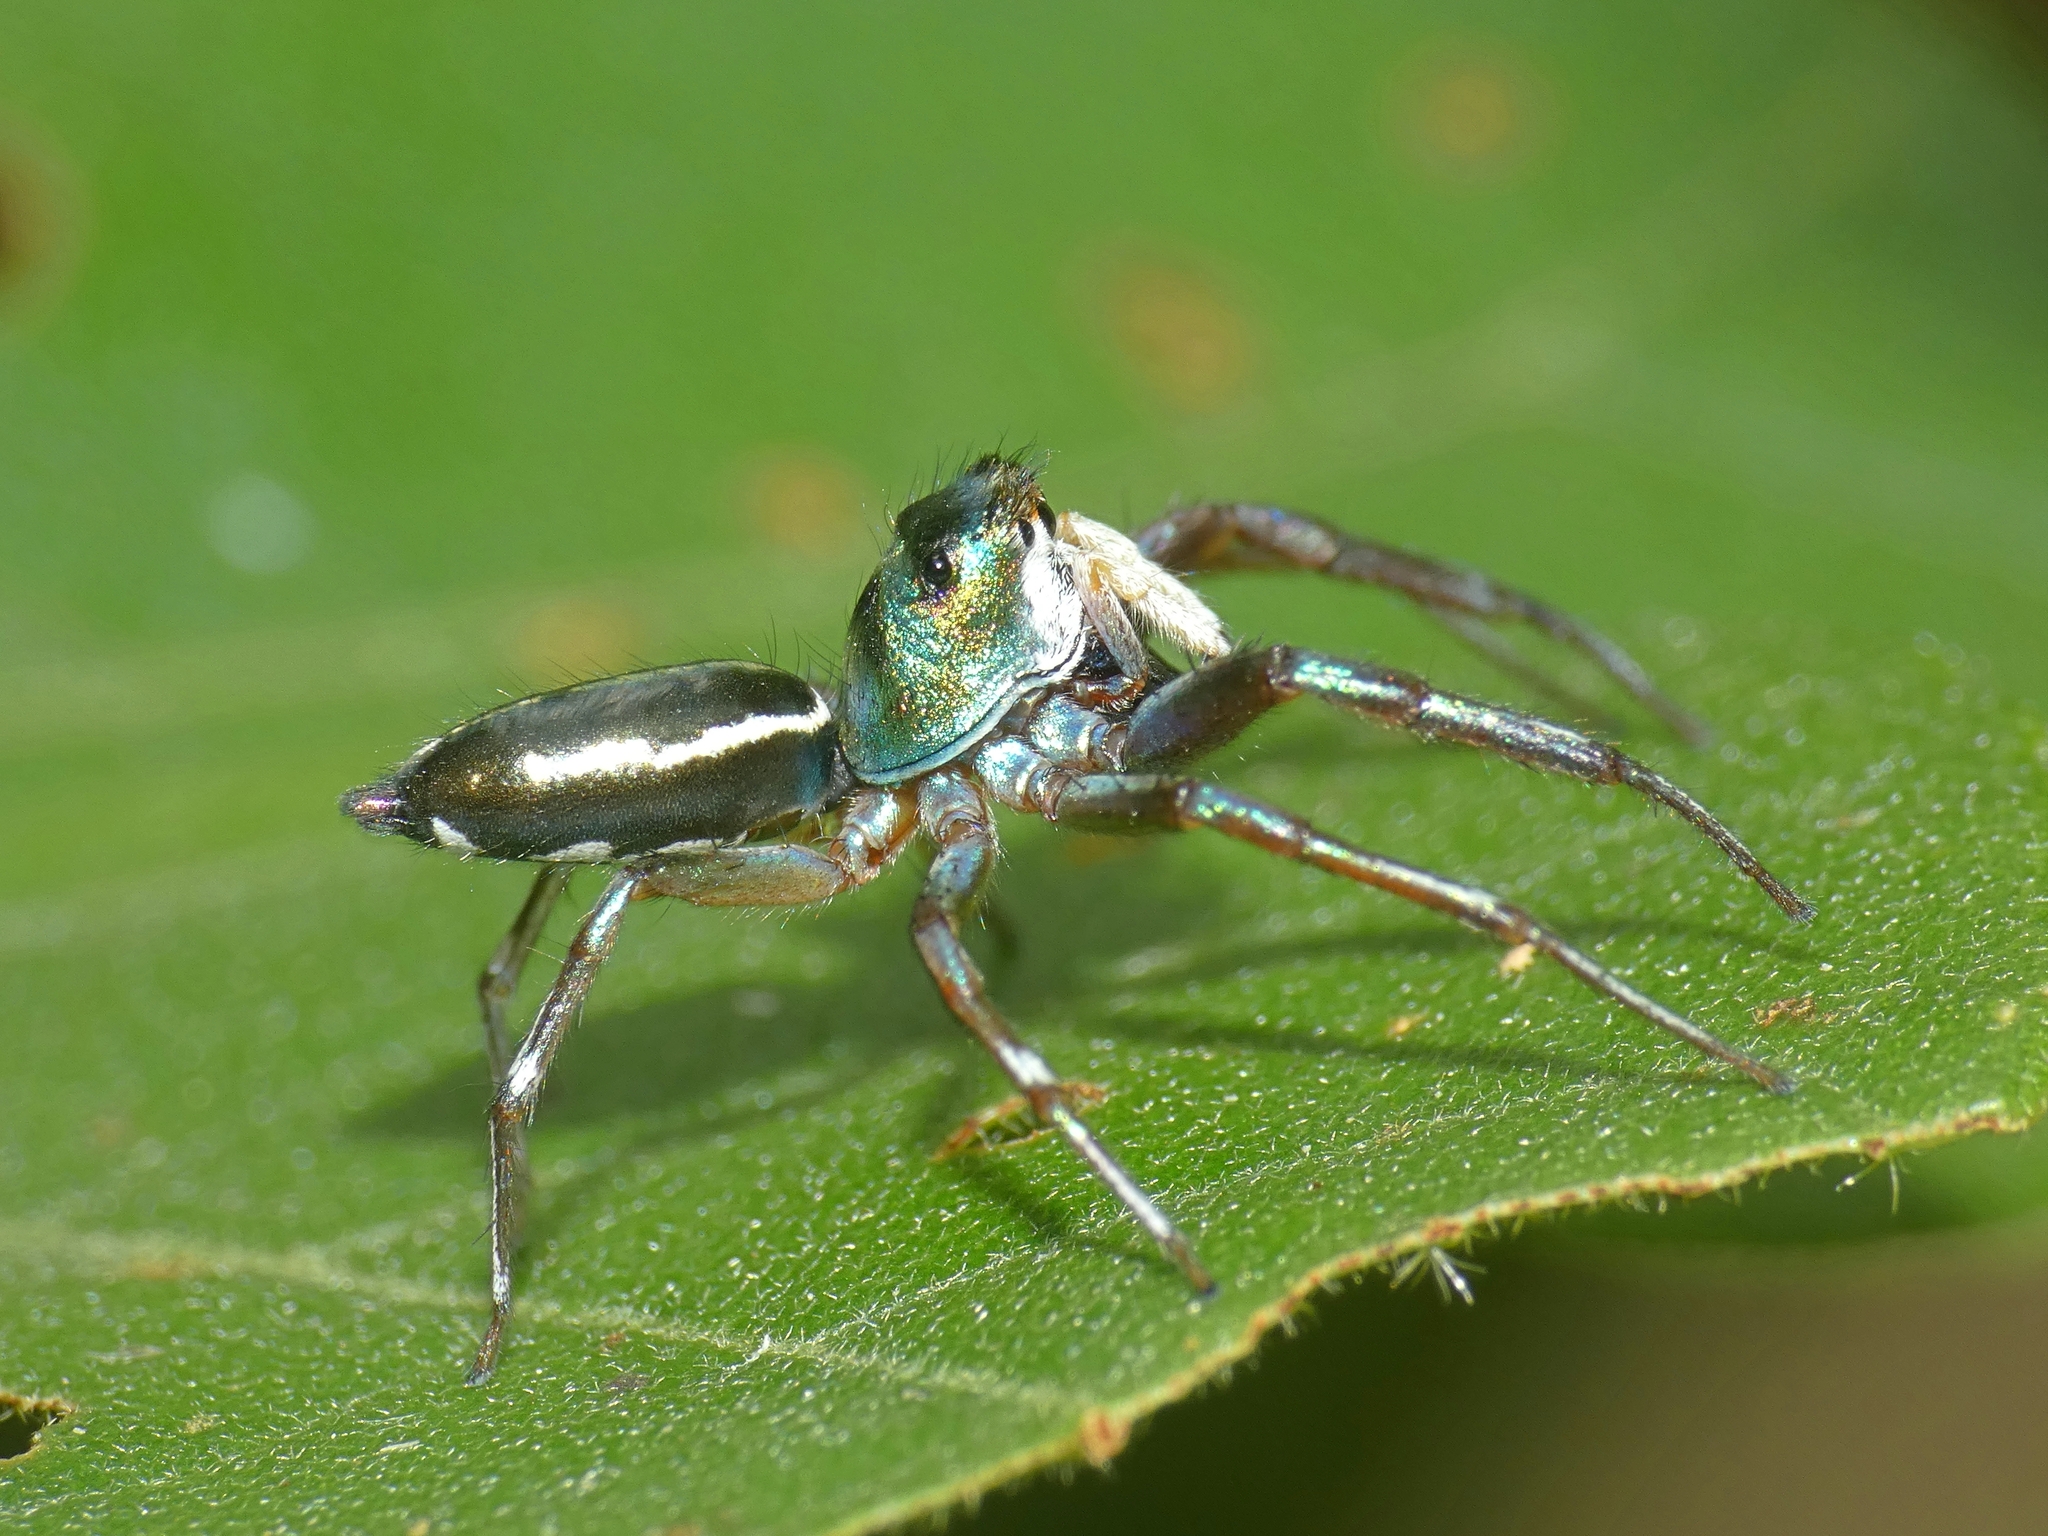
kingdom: Animalia
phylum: Arthropoda
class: Arachnida
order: Araneae
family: Salticidae
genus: Cosmophasis
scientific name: Cosmophasis thalassina
